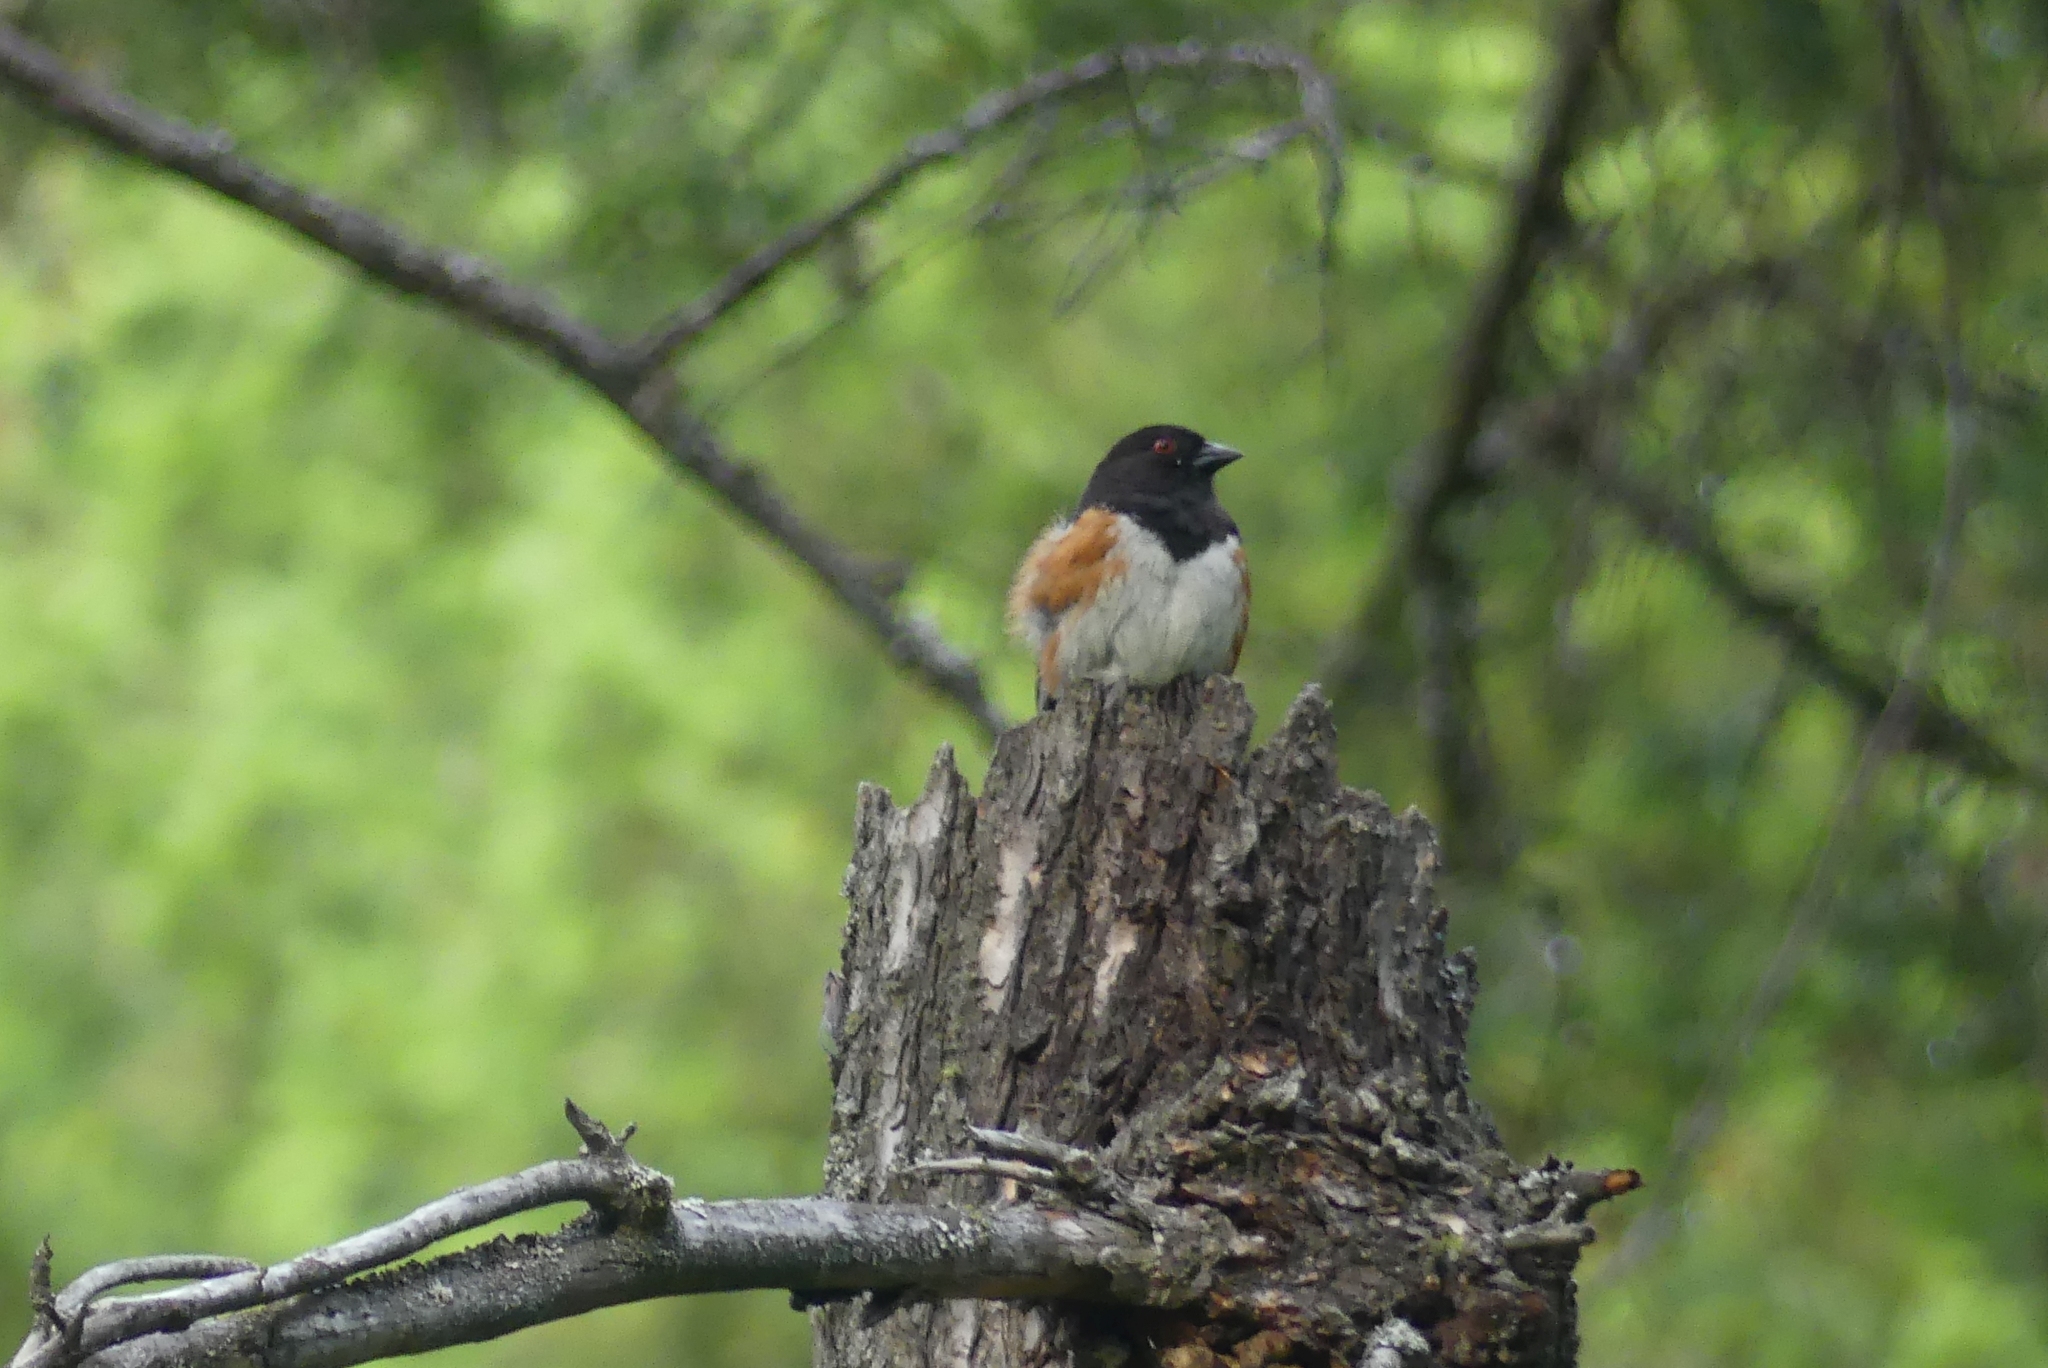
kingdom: Animalia
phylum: Chordata
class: Aves
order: Passeriformes
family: Passerellidae
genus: Pipilo
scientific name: Pipilo maculatus
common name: Spotted towhee
